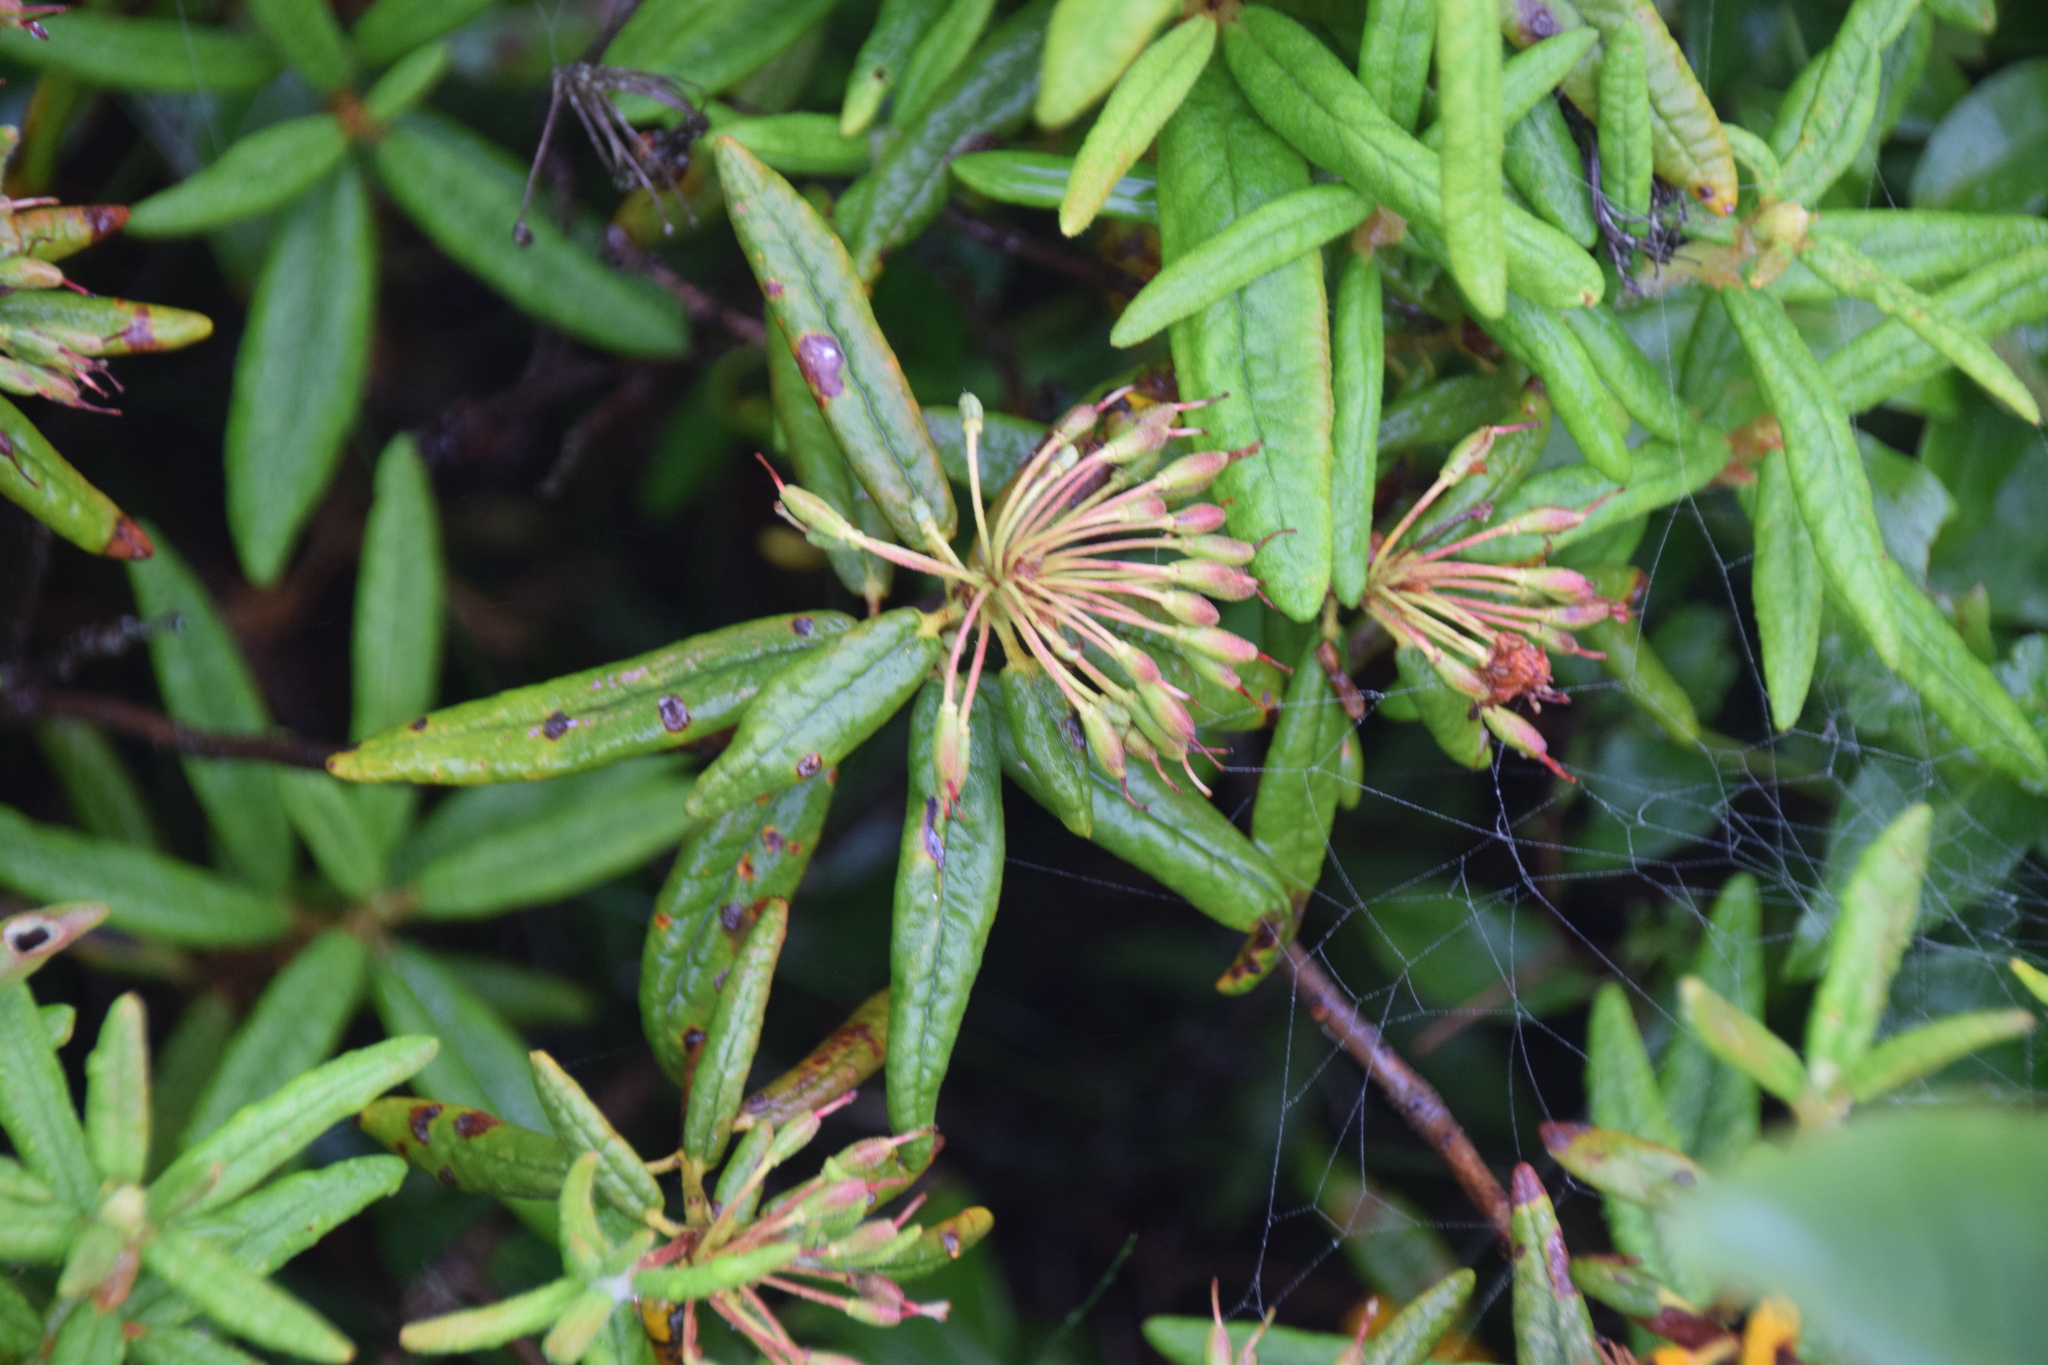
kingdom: Plantae
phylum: Tracheophyta
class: Magnoliopsida
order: Ericales
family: Ericaceae
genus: Rhododendron
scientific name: Rhododendron groenlandicum
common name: Bog labrador tea
